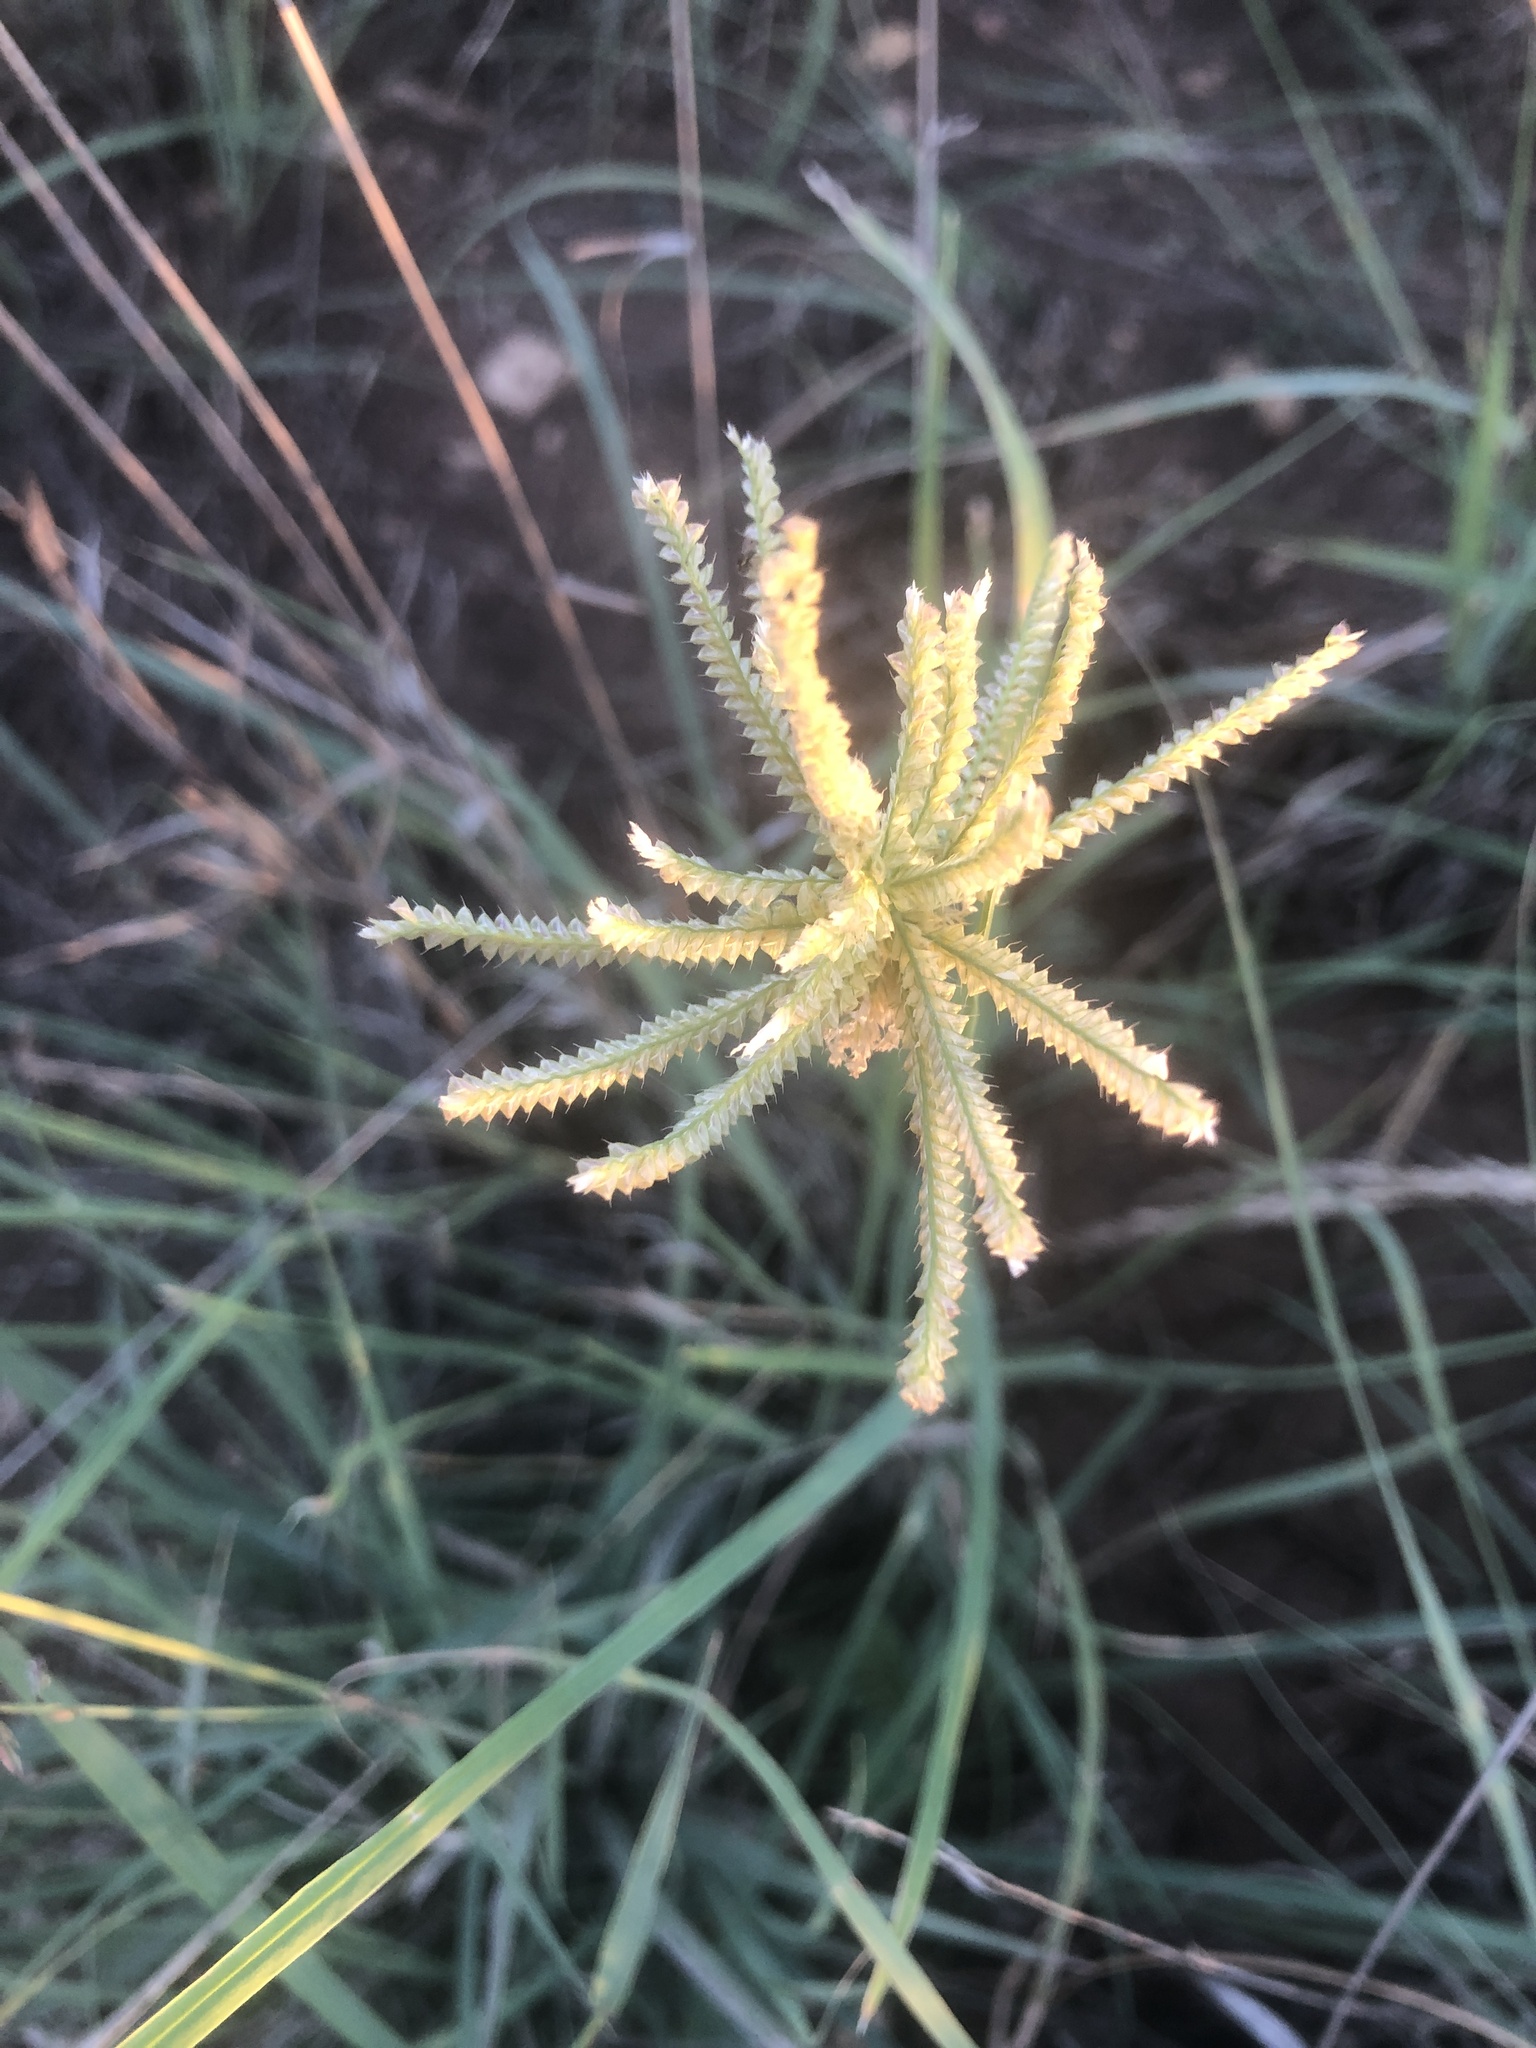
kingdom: Plantae
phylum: Tracheophyta
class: Liliopsida
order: Poales
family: Poaceae
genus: Chloris
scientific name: Chloris cucullata
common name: Hooded windmill grass
